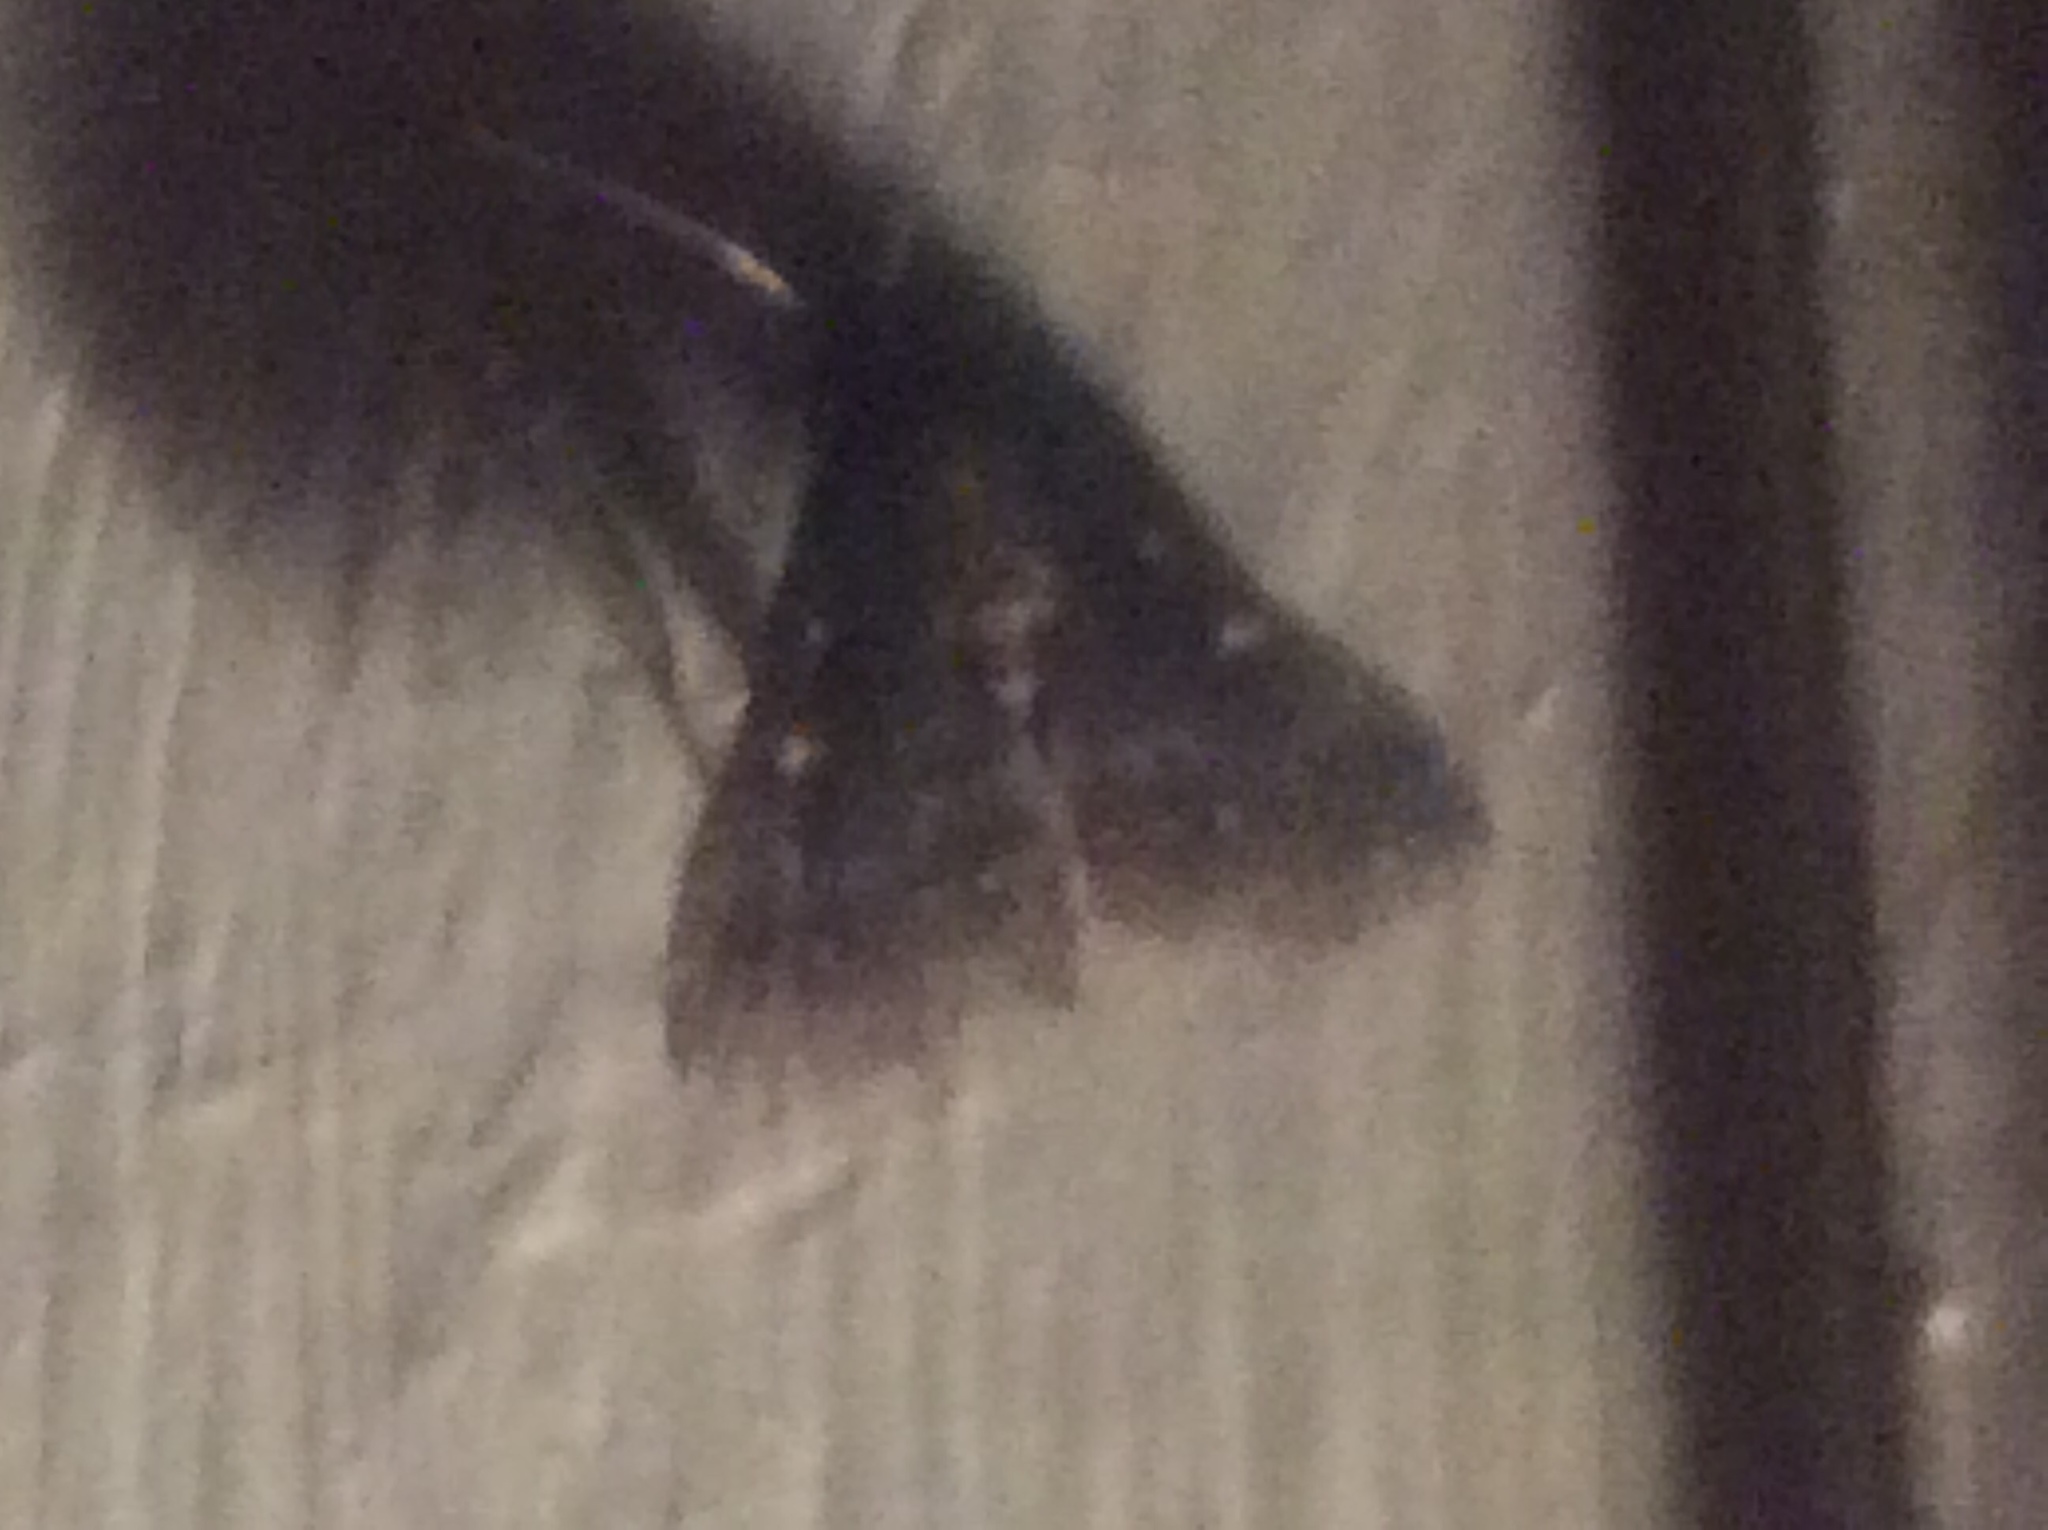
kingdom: Animalia
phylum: Arthropoda
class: Insecta
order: Lepidoptera
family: Erebidae
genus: Tetanolita
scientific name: Tetanolita mynesalis
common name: Smoky tetanolita moth
